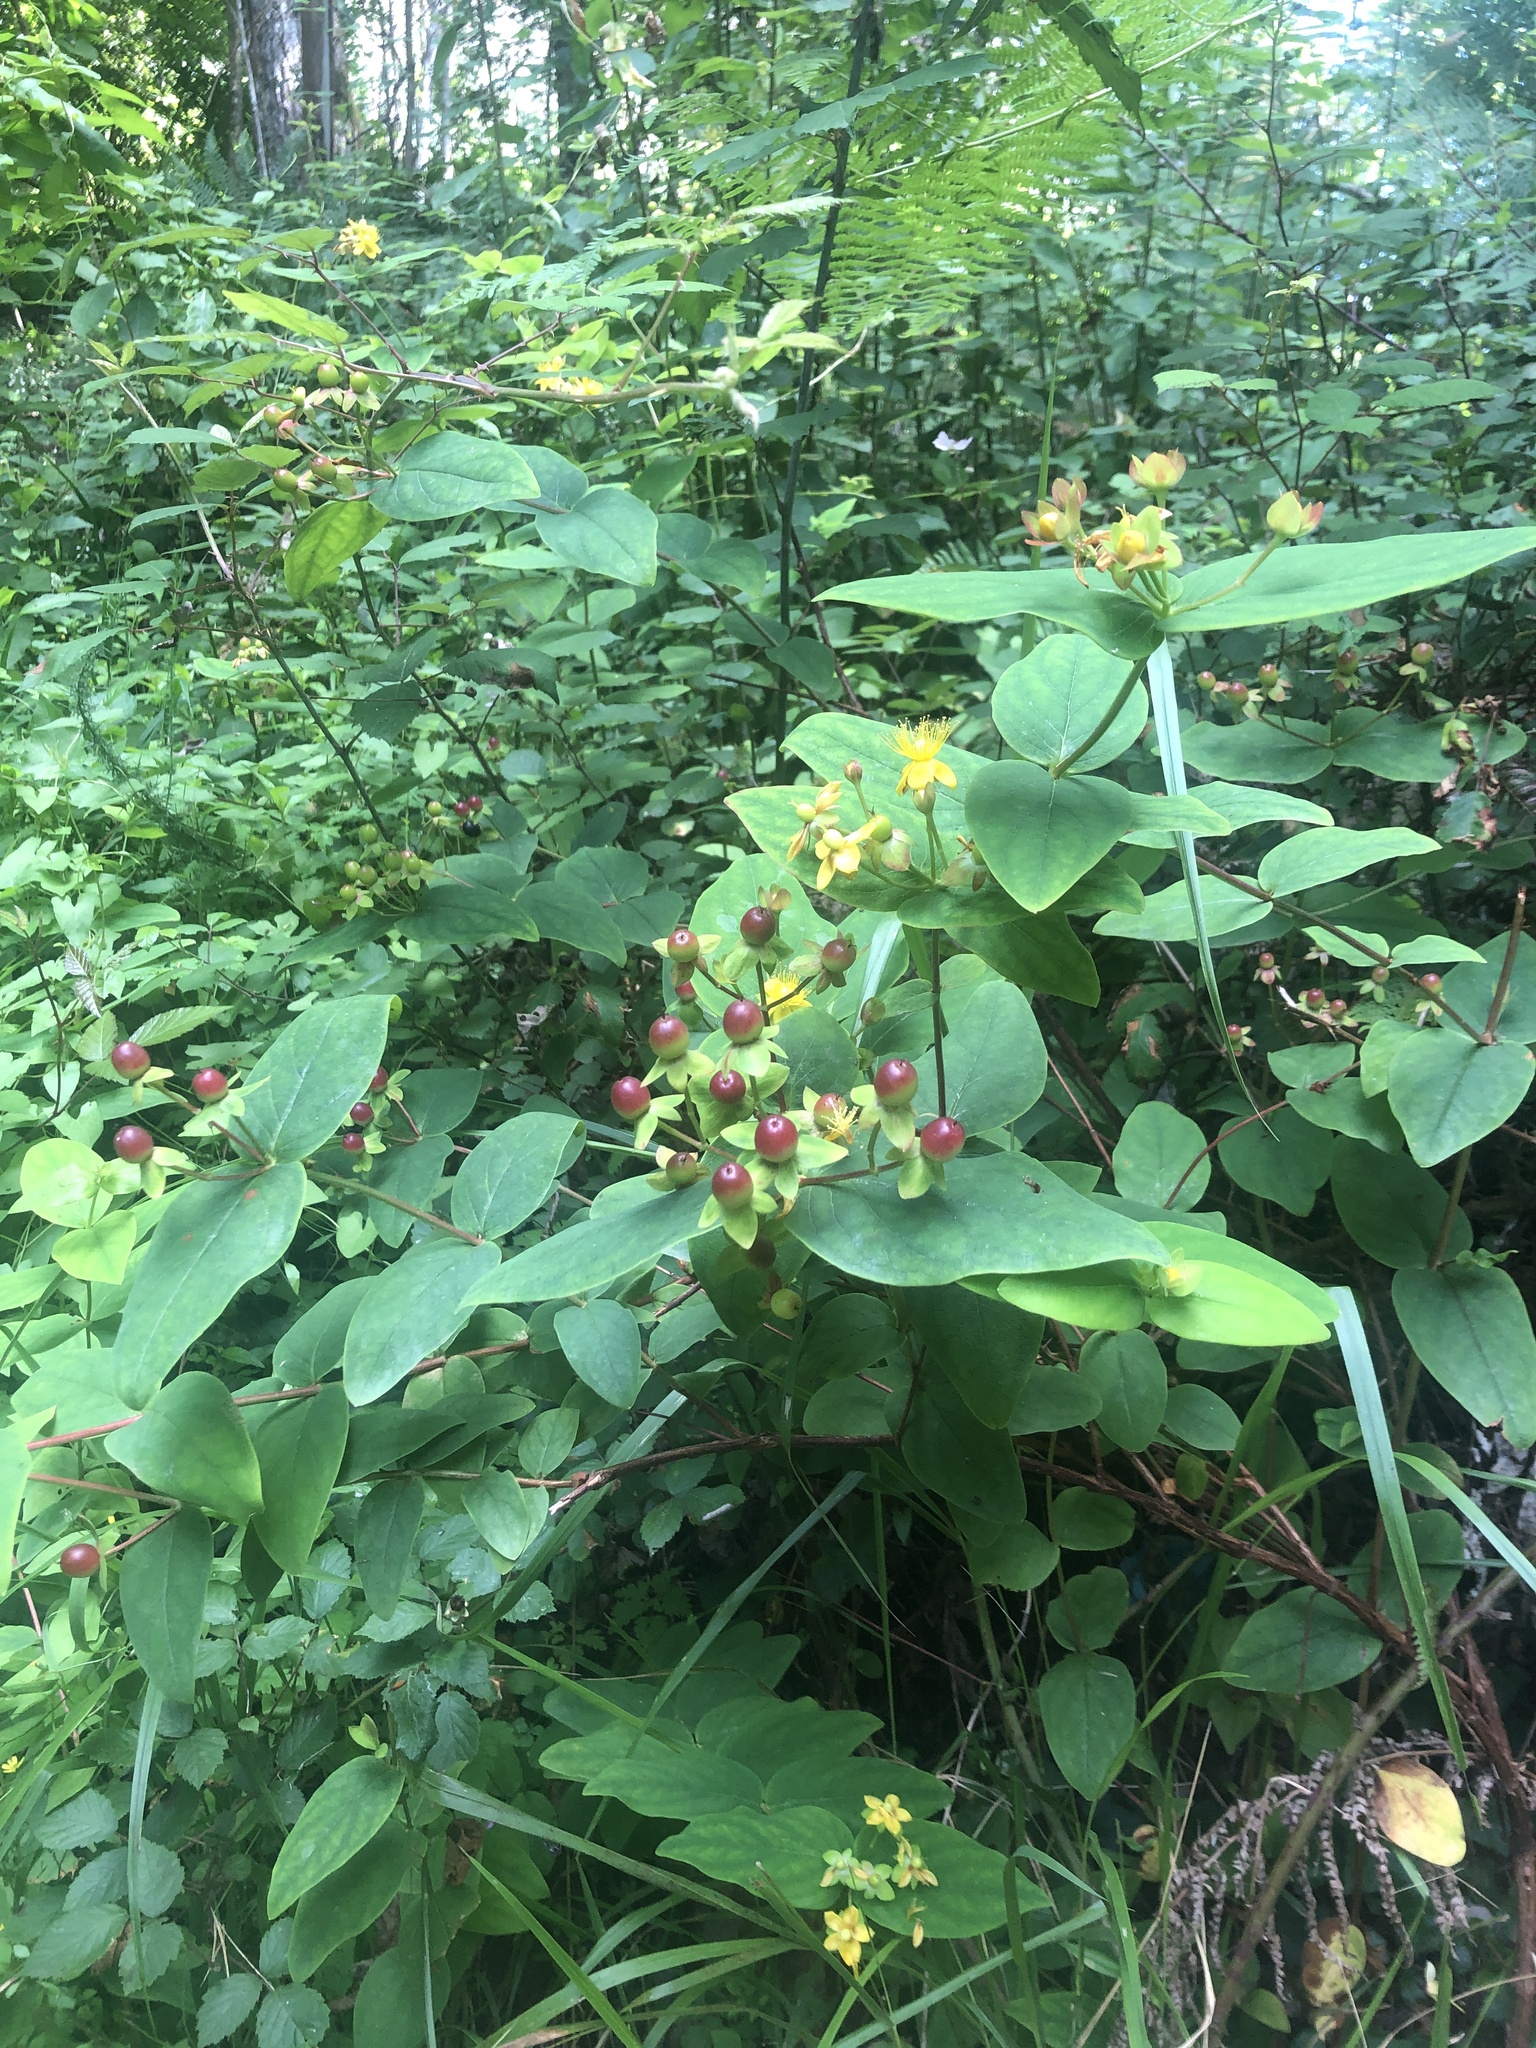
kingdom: Plantae
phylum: Tracheophyta
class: Magnoliopsida
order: Malpighiales
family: Hypericaceae
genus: Hypericum
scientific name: Hypericum androsaemum
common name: Sweet-amber
